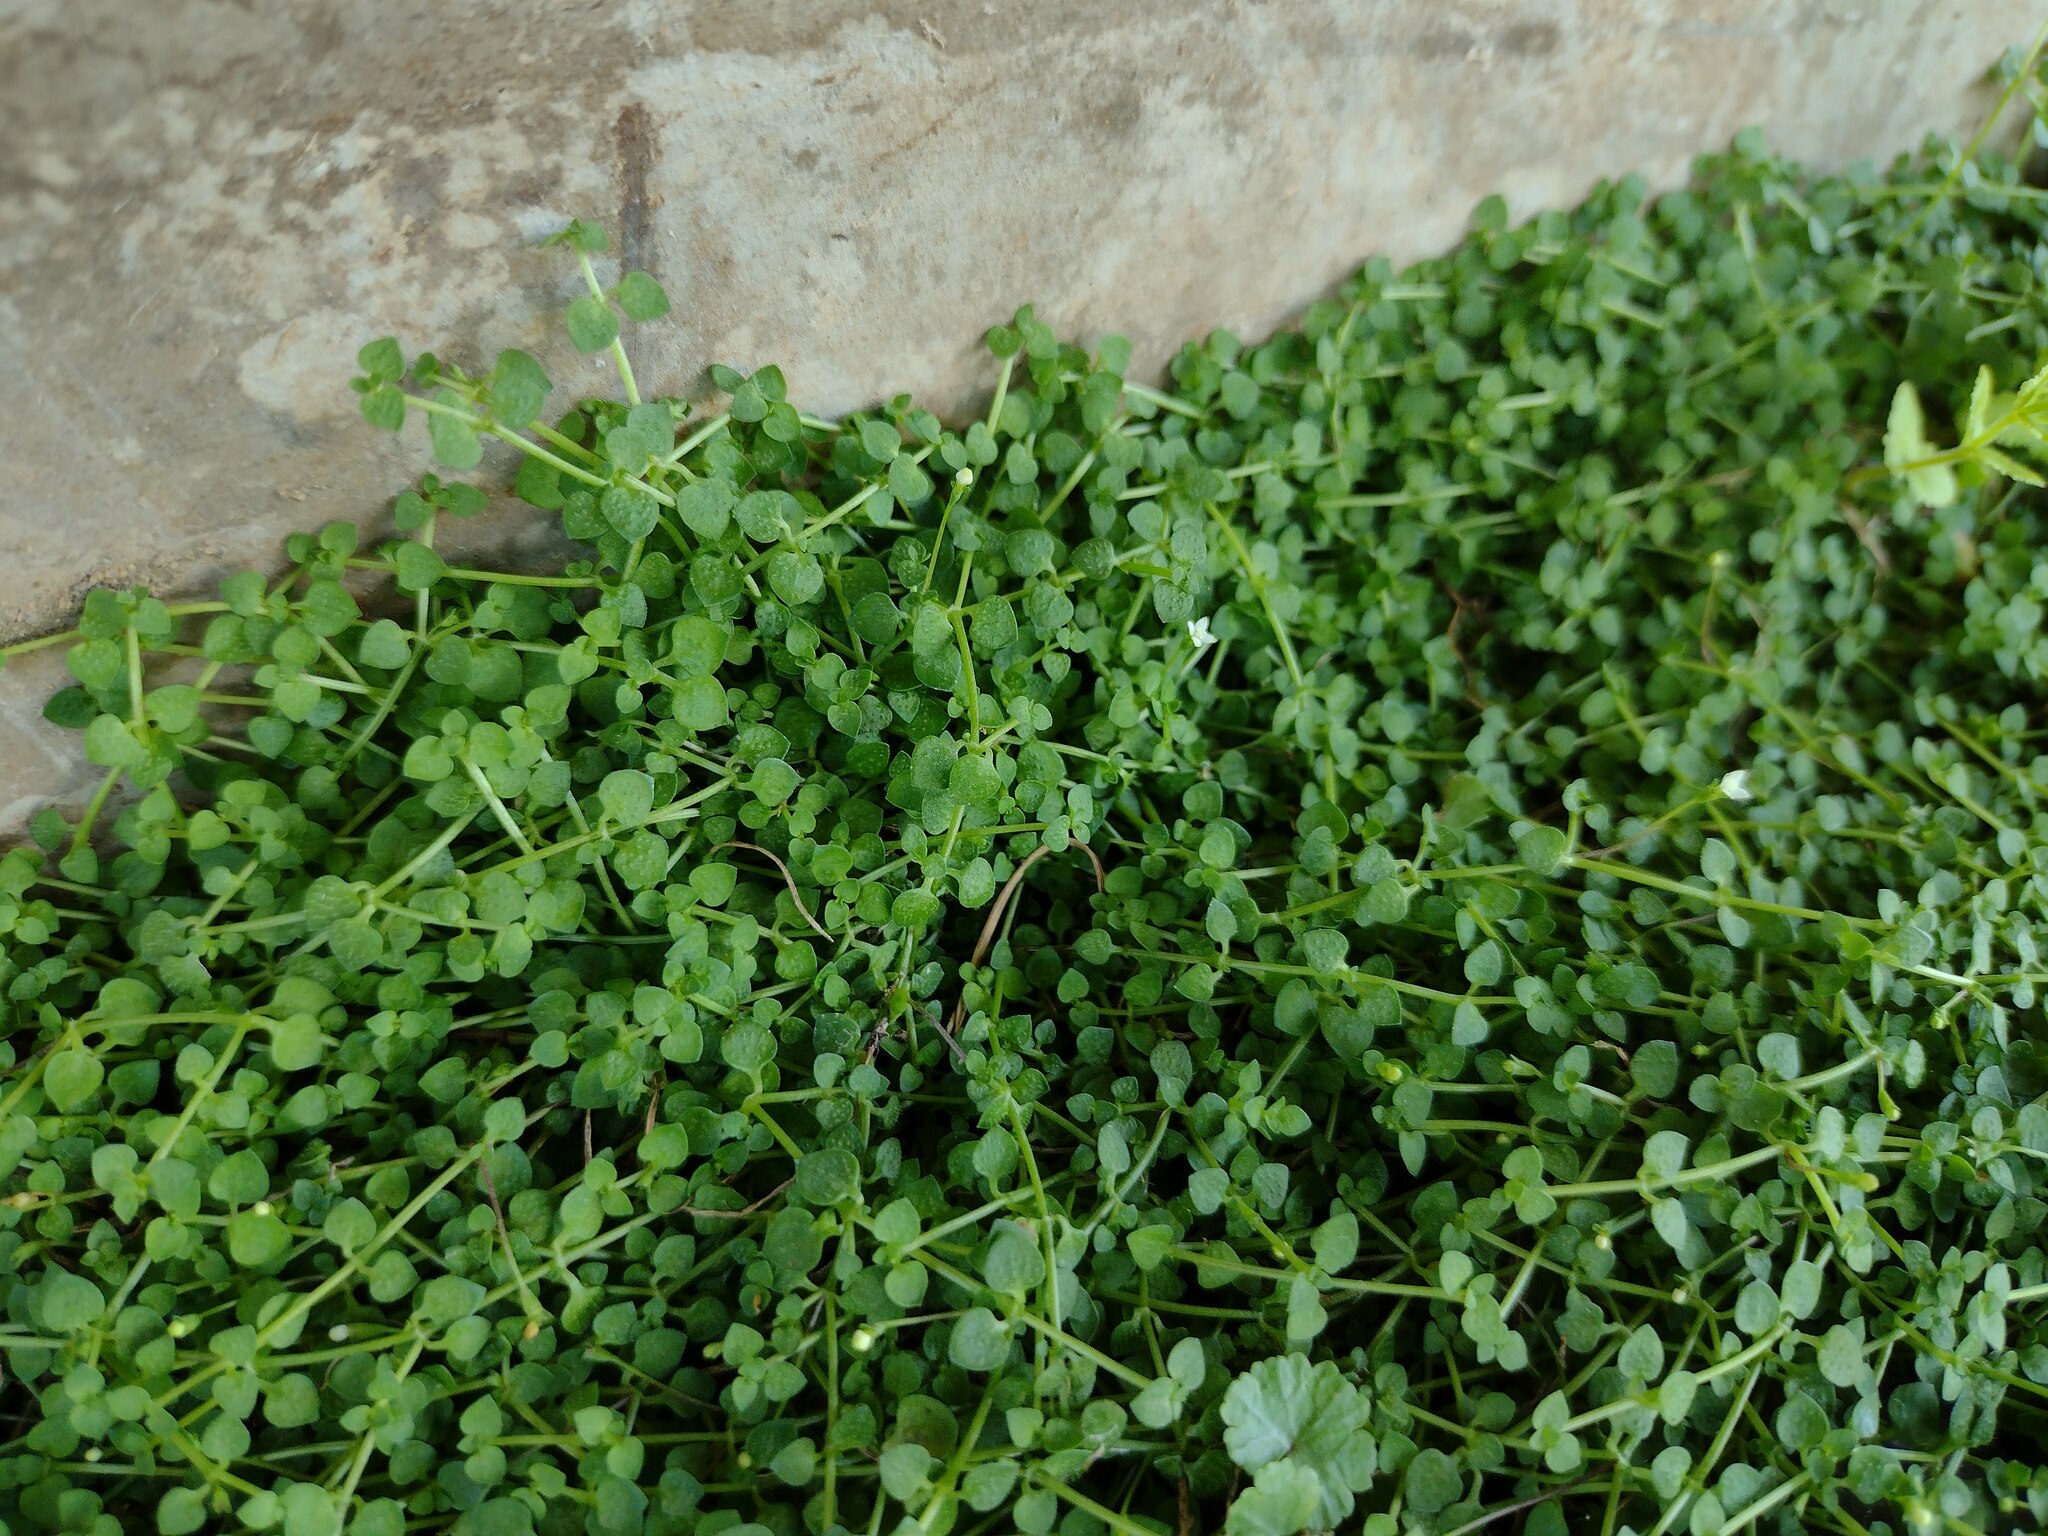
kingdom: Plantae
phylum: Tracheophyta
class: Magnoliopsida
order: Gentianales
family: Rubiaceae
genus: Oldenlandiopsis
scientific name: Oldenlandiopsis callitrichoides
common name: Creeping-bluet
